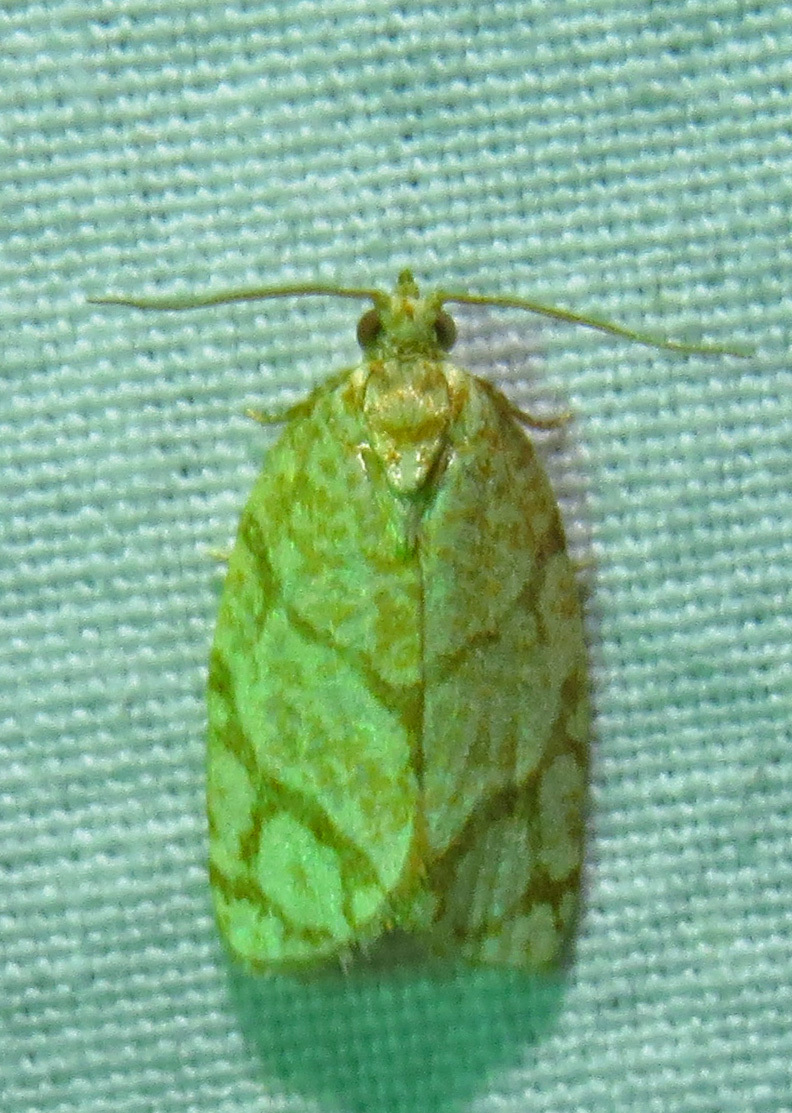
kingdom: Animalia
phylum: Arthropoda
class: Insecta
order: Lepidoptera
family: Tortricidae
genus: Argyrotaenia
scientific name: Argyrotaenia quercifoliana
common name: Yellow-winged oak leafroller moth
